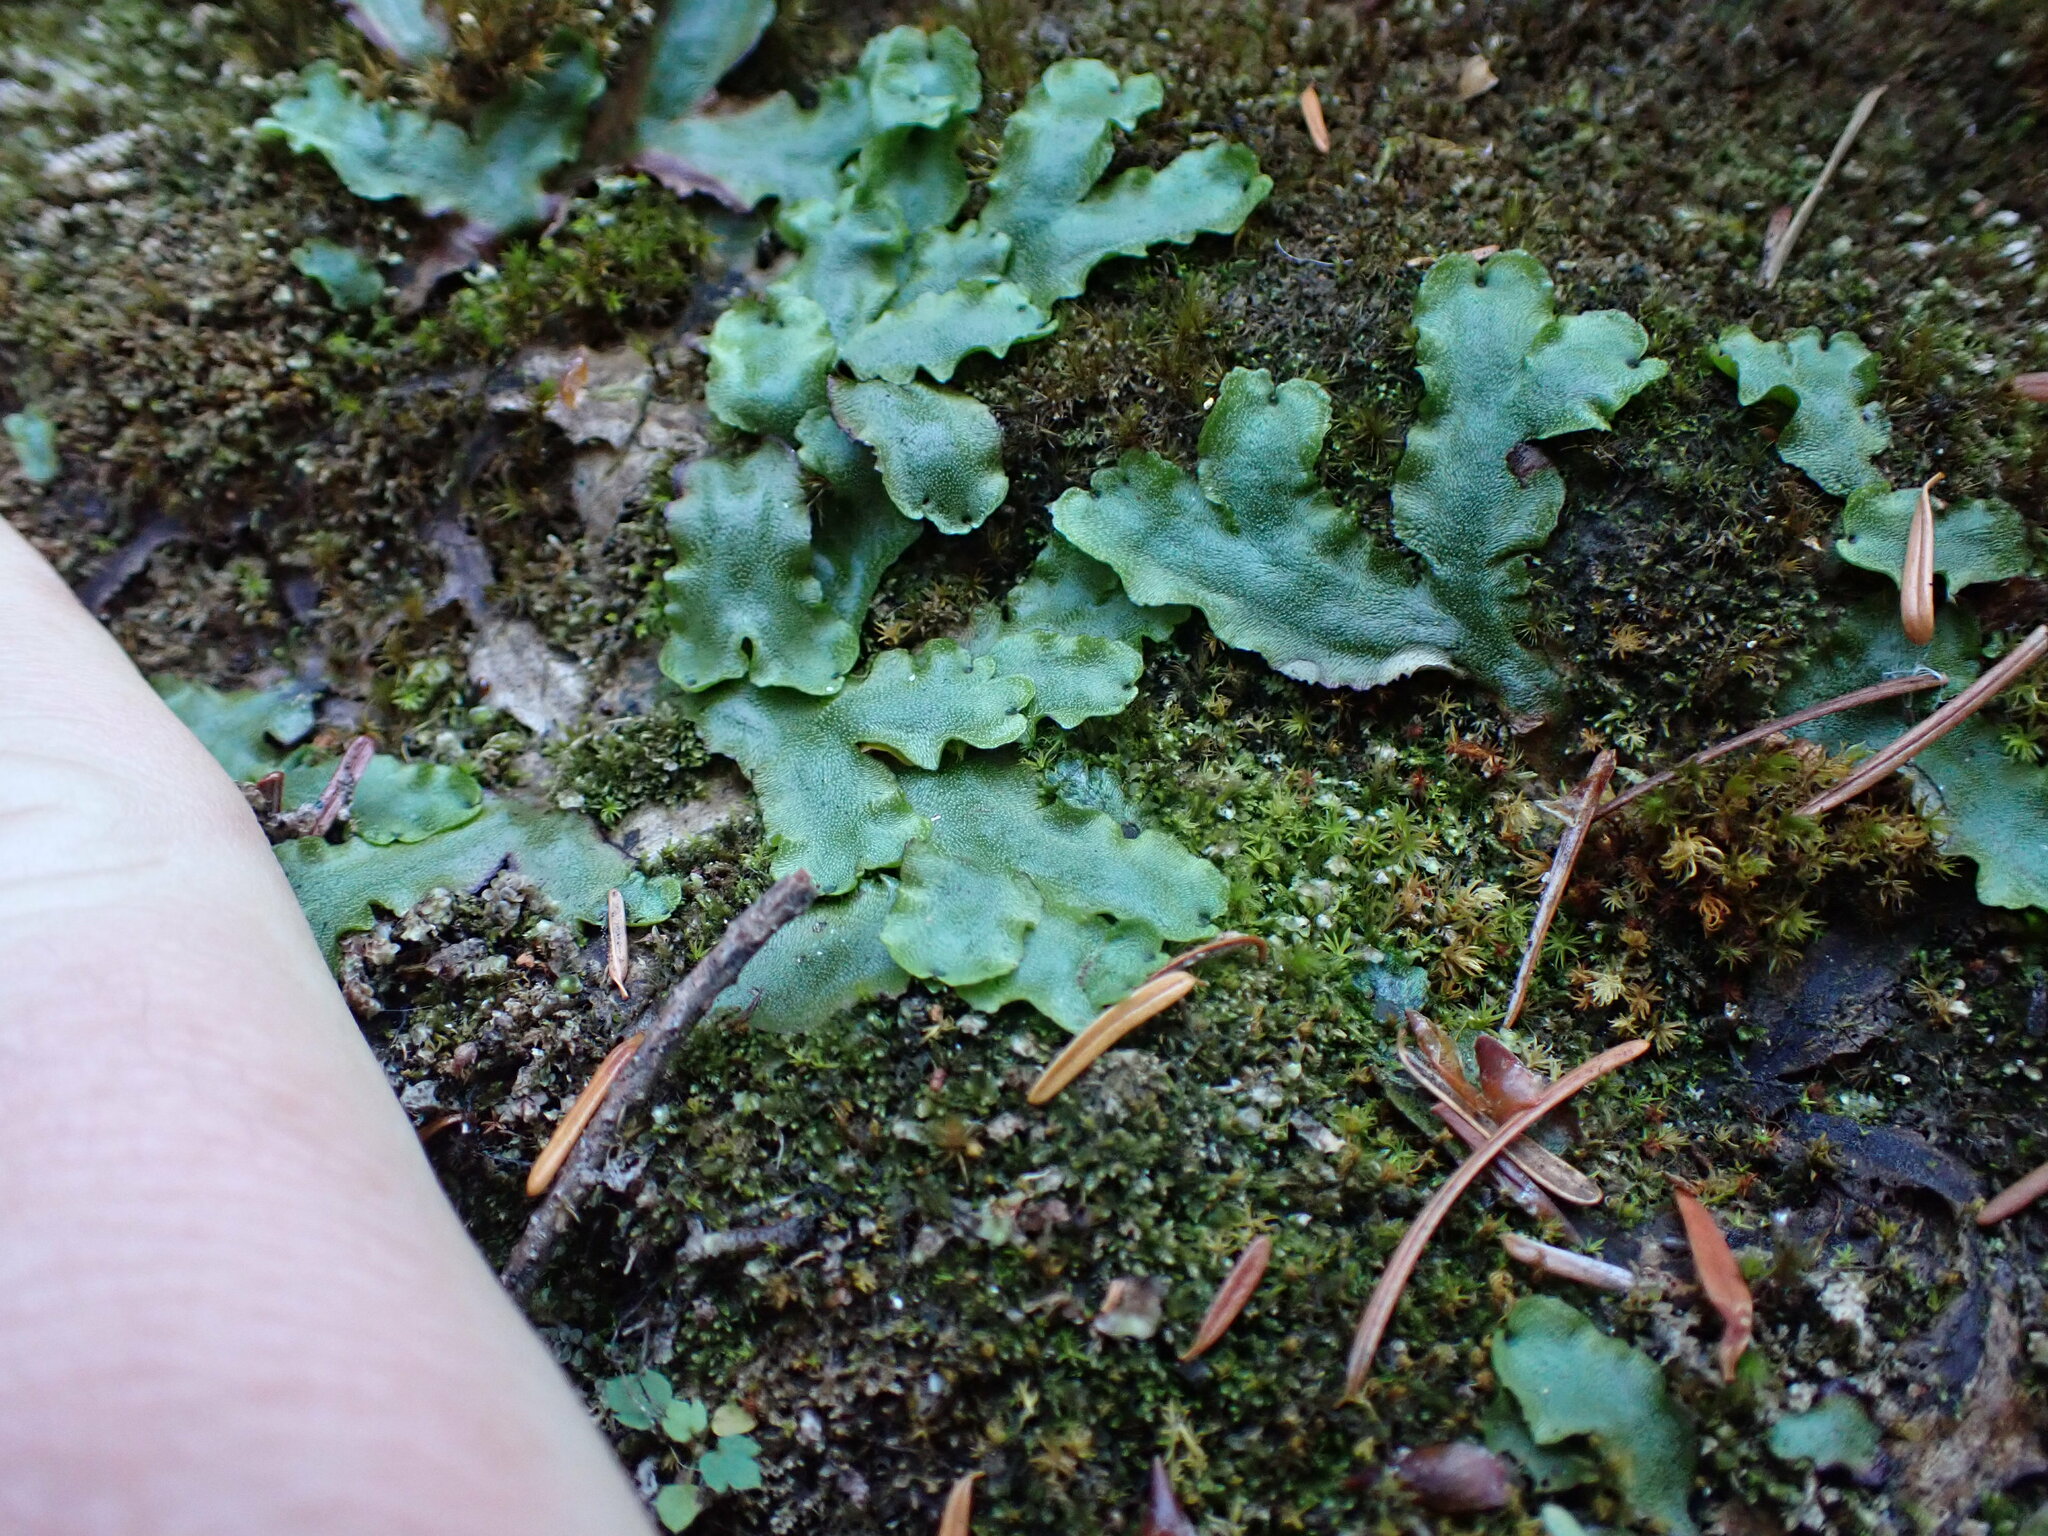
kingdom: Plantae
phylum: Marchantiophyta
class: Marchantiopsida
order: Marchantiales
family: Marchantiaceae
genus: Marchantia
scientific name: Marchantia quadrata
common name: Narrow mushroom-headed liverwort
